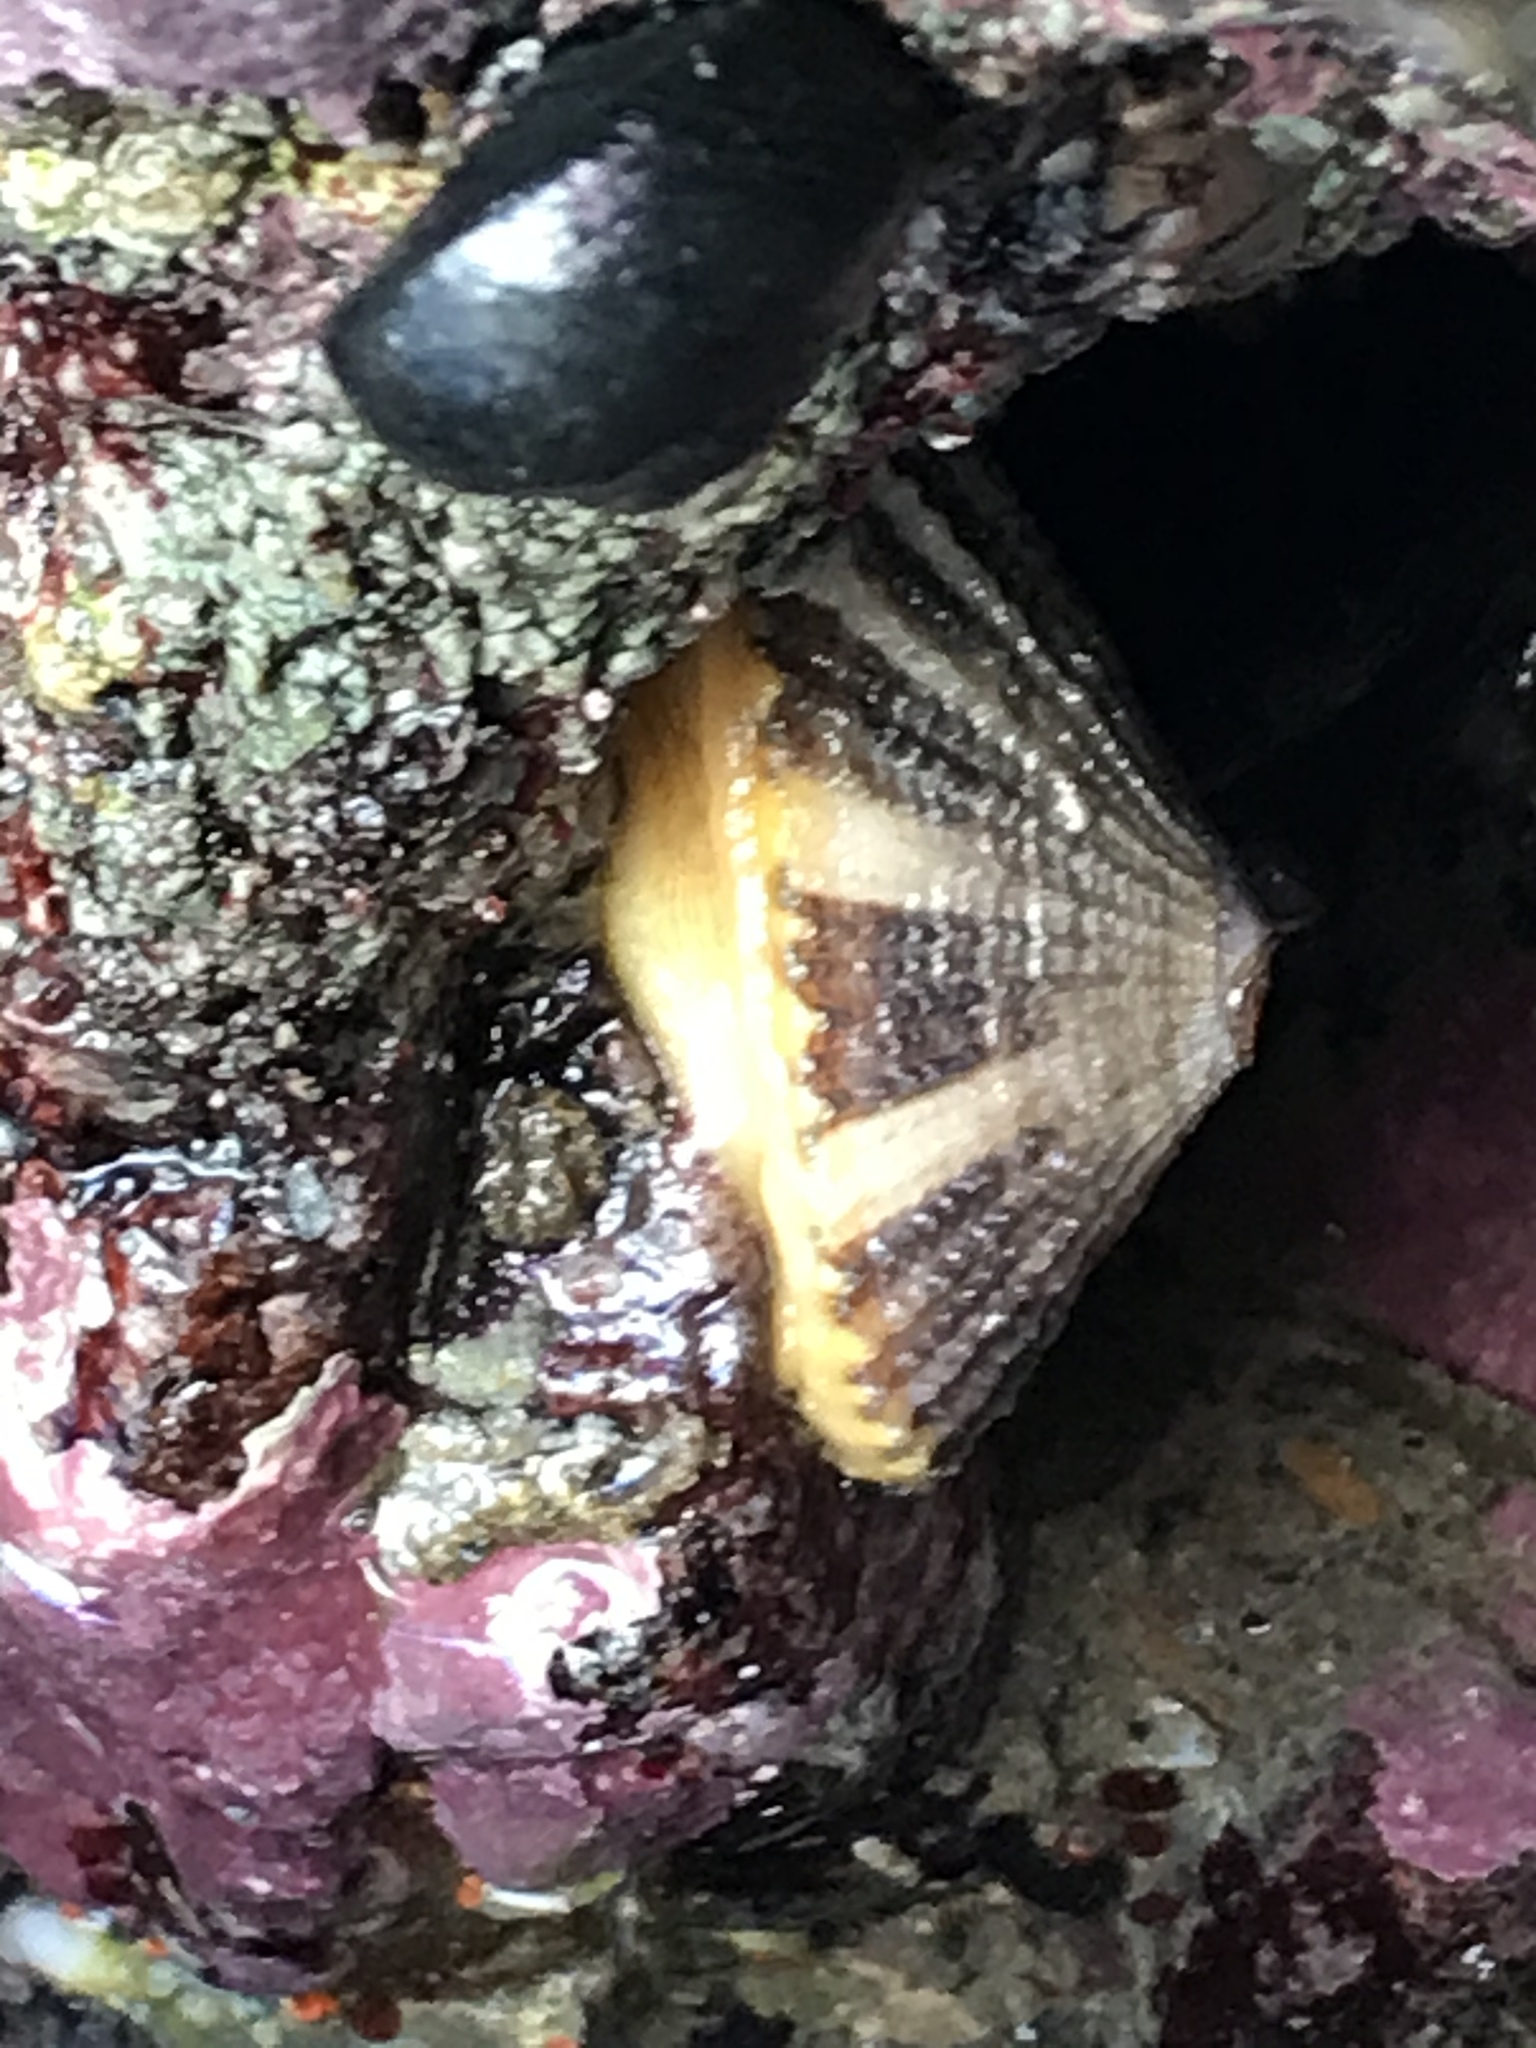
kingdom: Animalia
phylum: Mollusca
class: Gastropoda
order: Lepetellida
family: Fissurellidae
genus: Diodora
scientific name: Diodora aspera
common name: Rough keyhole limpet
